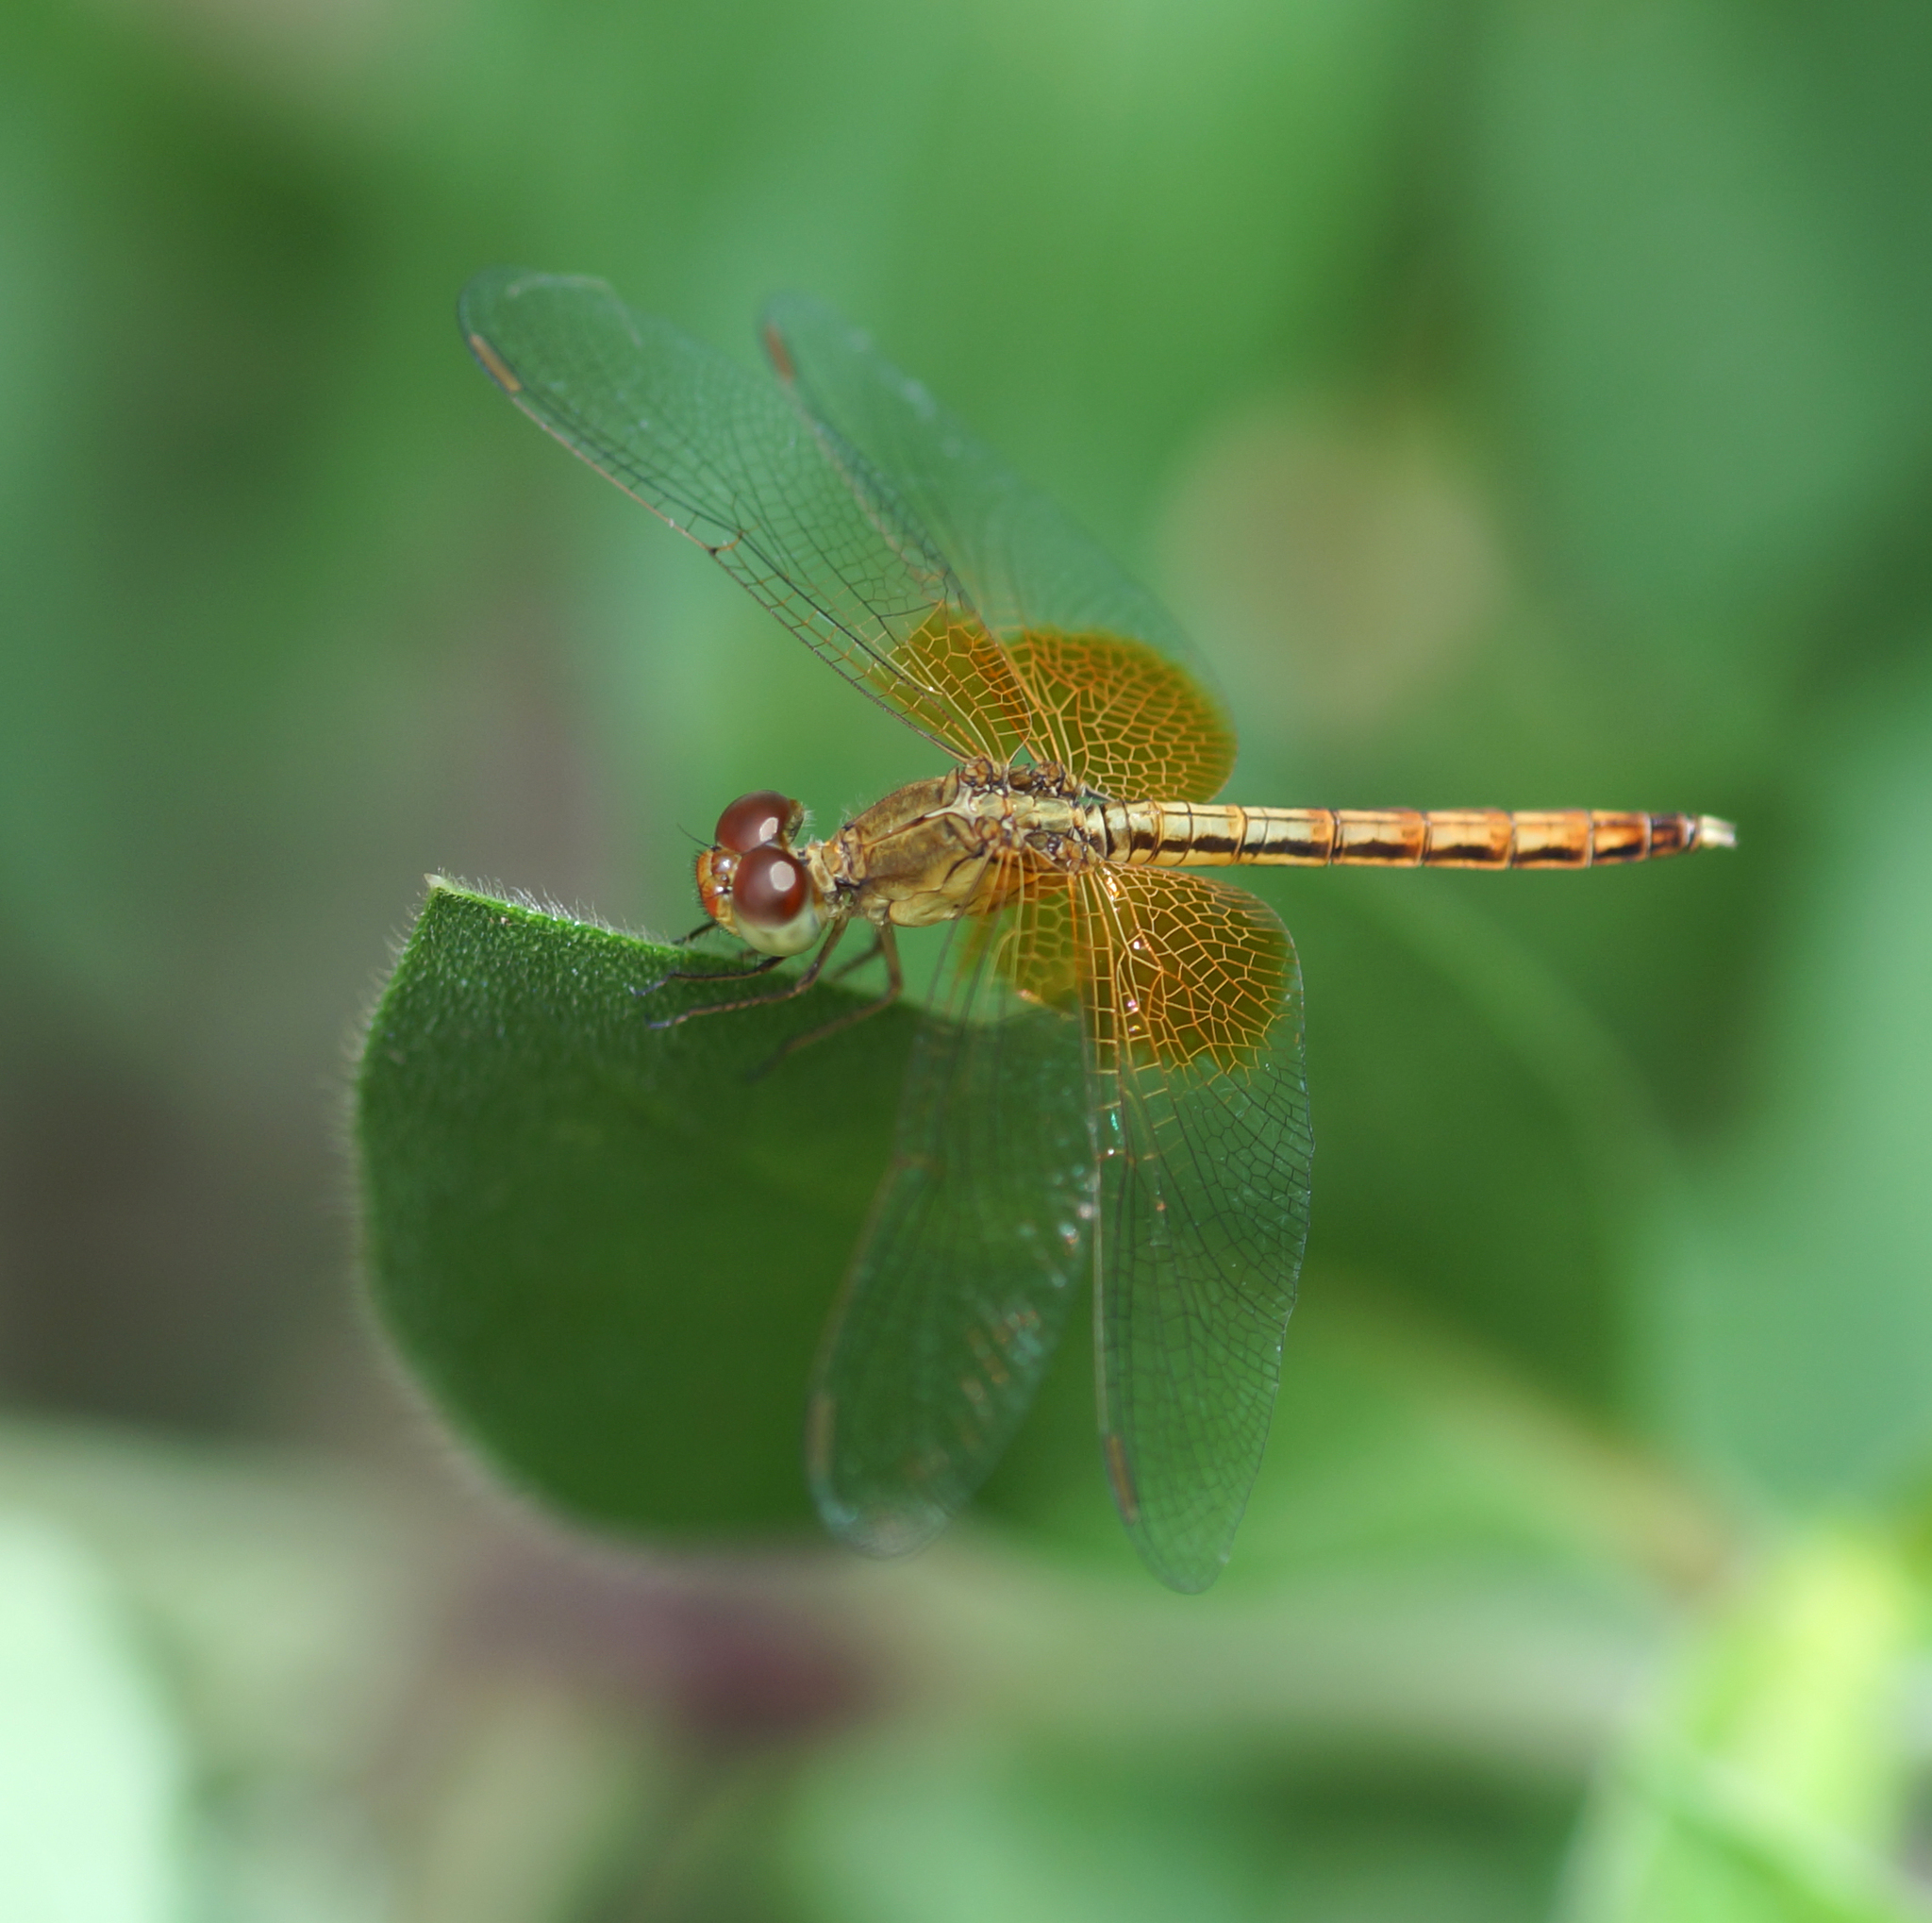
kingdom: Animalia
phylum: Arthropoda
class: Insecta
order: Odonata
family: Libellulidae
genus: Neurothemis
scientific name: Neurothemis intermedia
